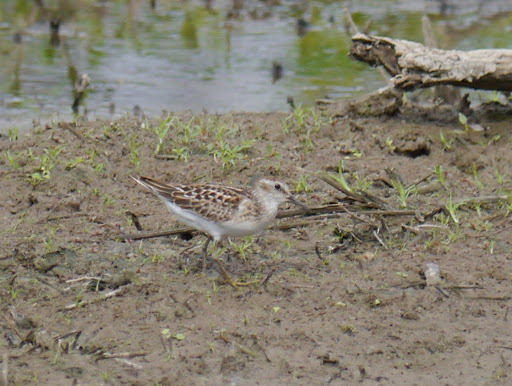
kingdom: Animalia
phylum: Chordata
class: Aves
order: Charadriiformes
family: Scolopacidae
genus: Calidris
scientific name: Calidris minutilla
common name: Least sandpiper
